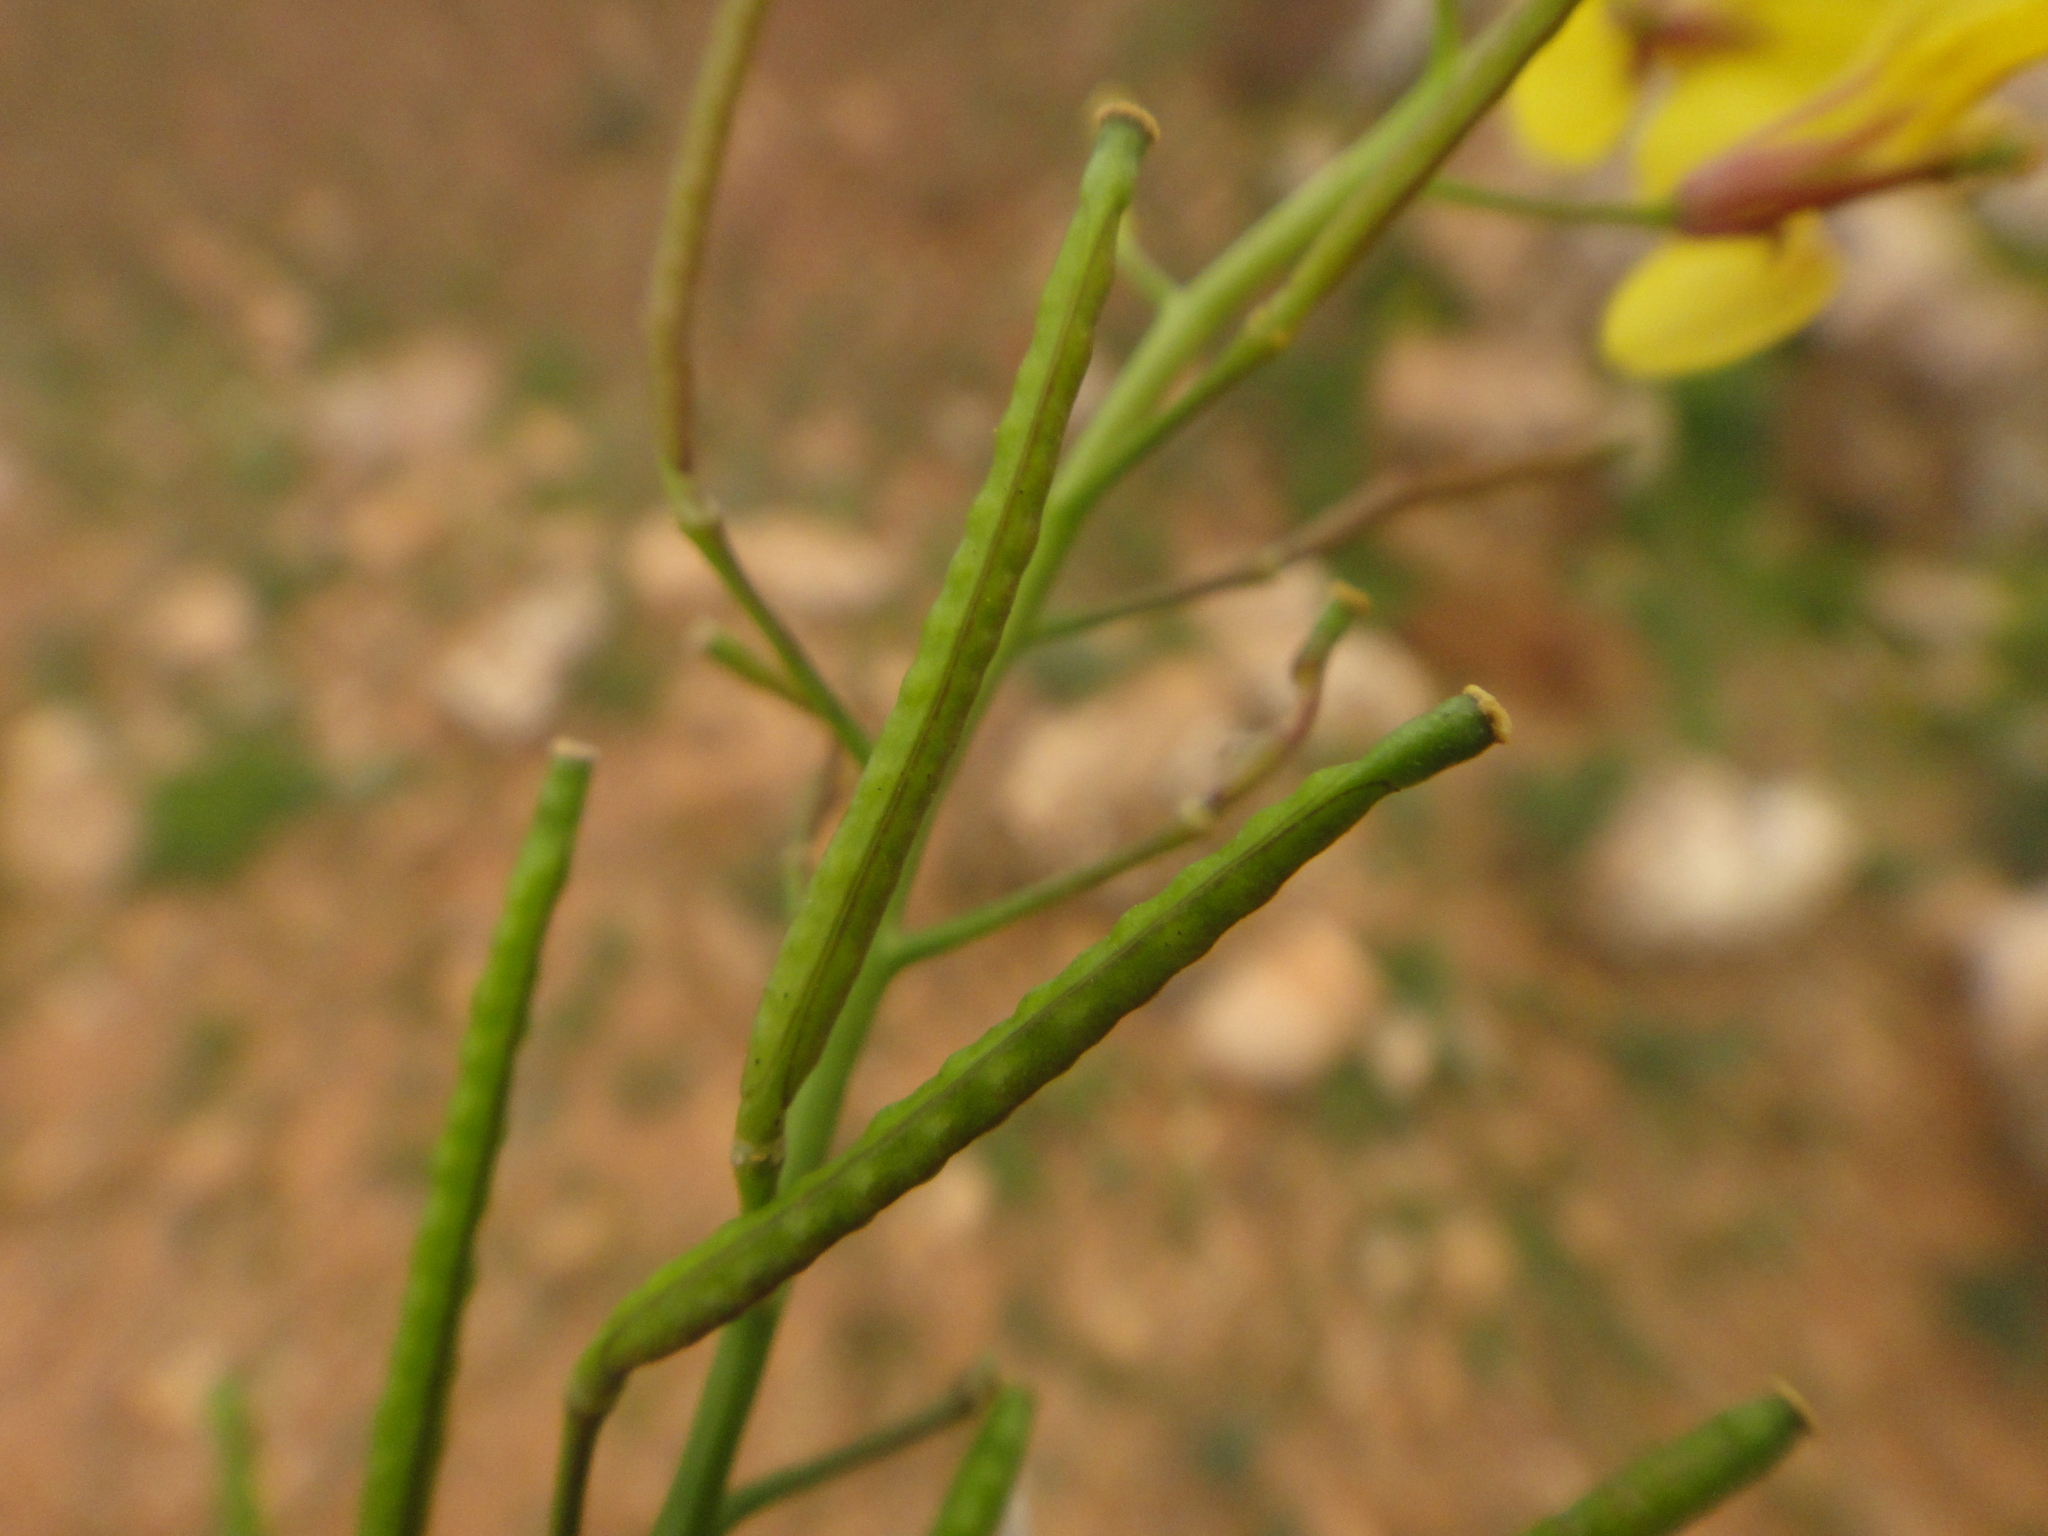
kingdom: Plantae
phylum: Tracheophyta
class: Magnoliopsida
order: Brassicales
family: Brassicaceae
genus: Erucastrum
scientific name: Erucastrum canariense
